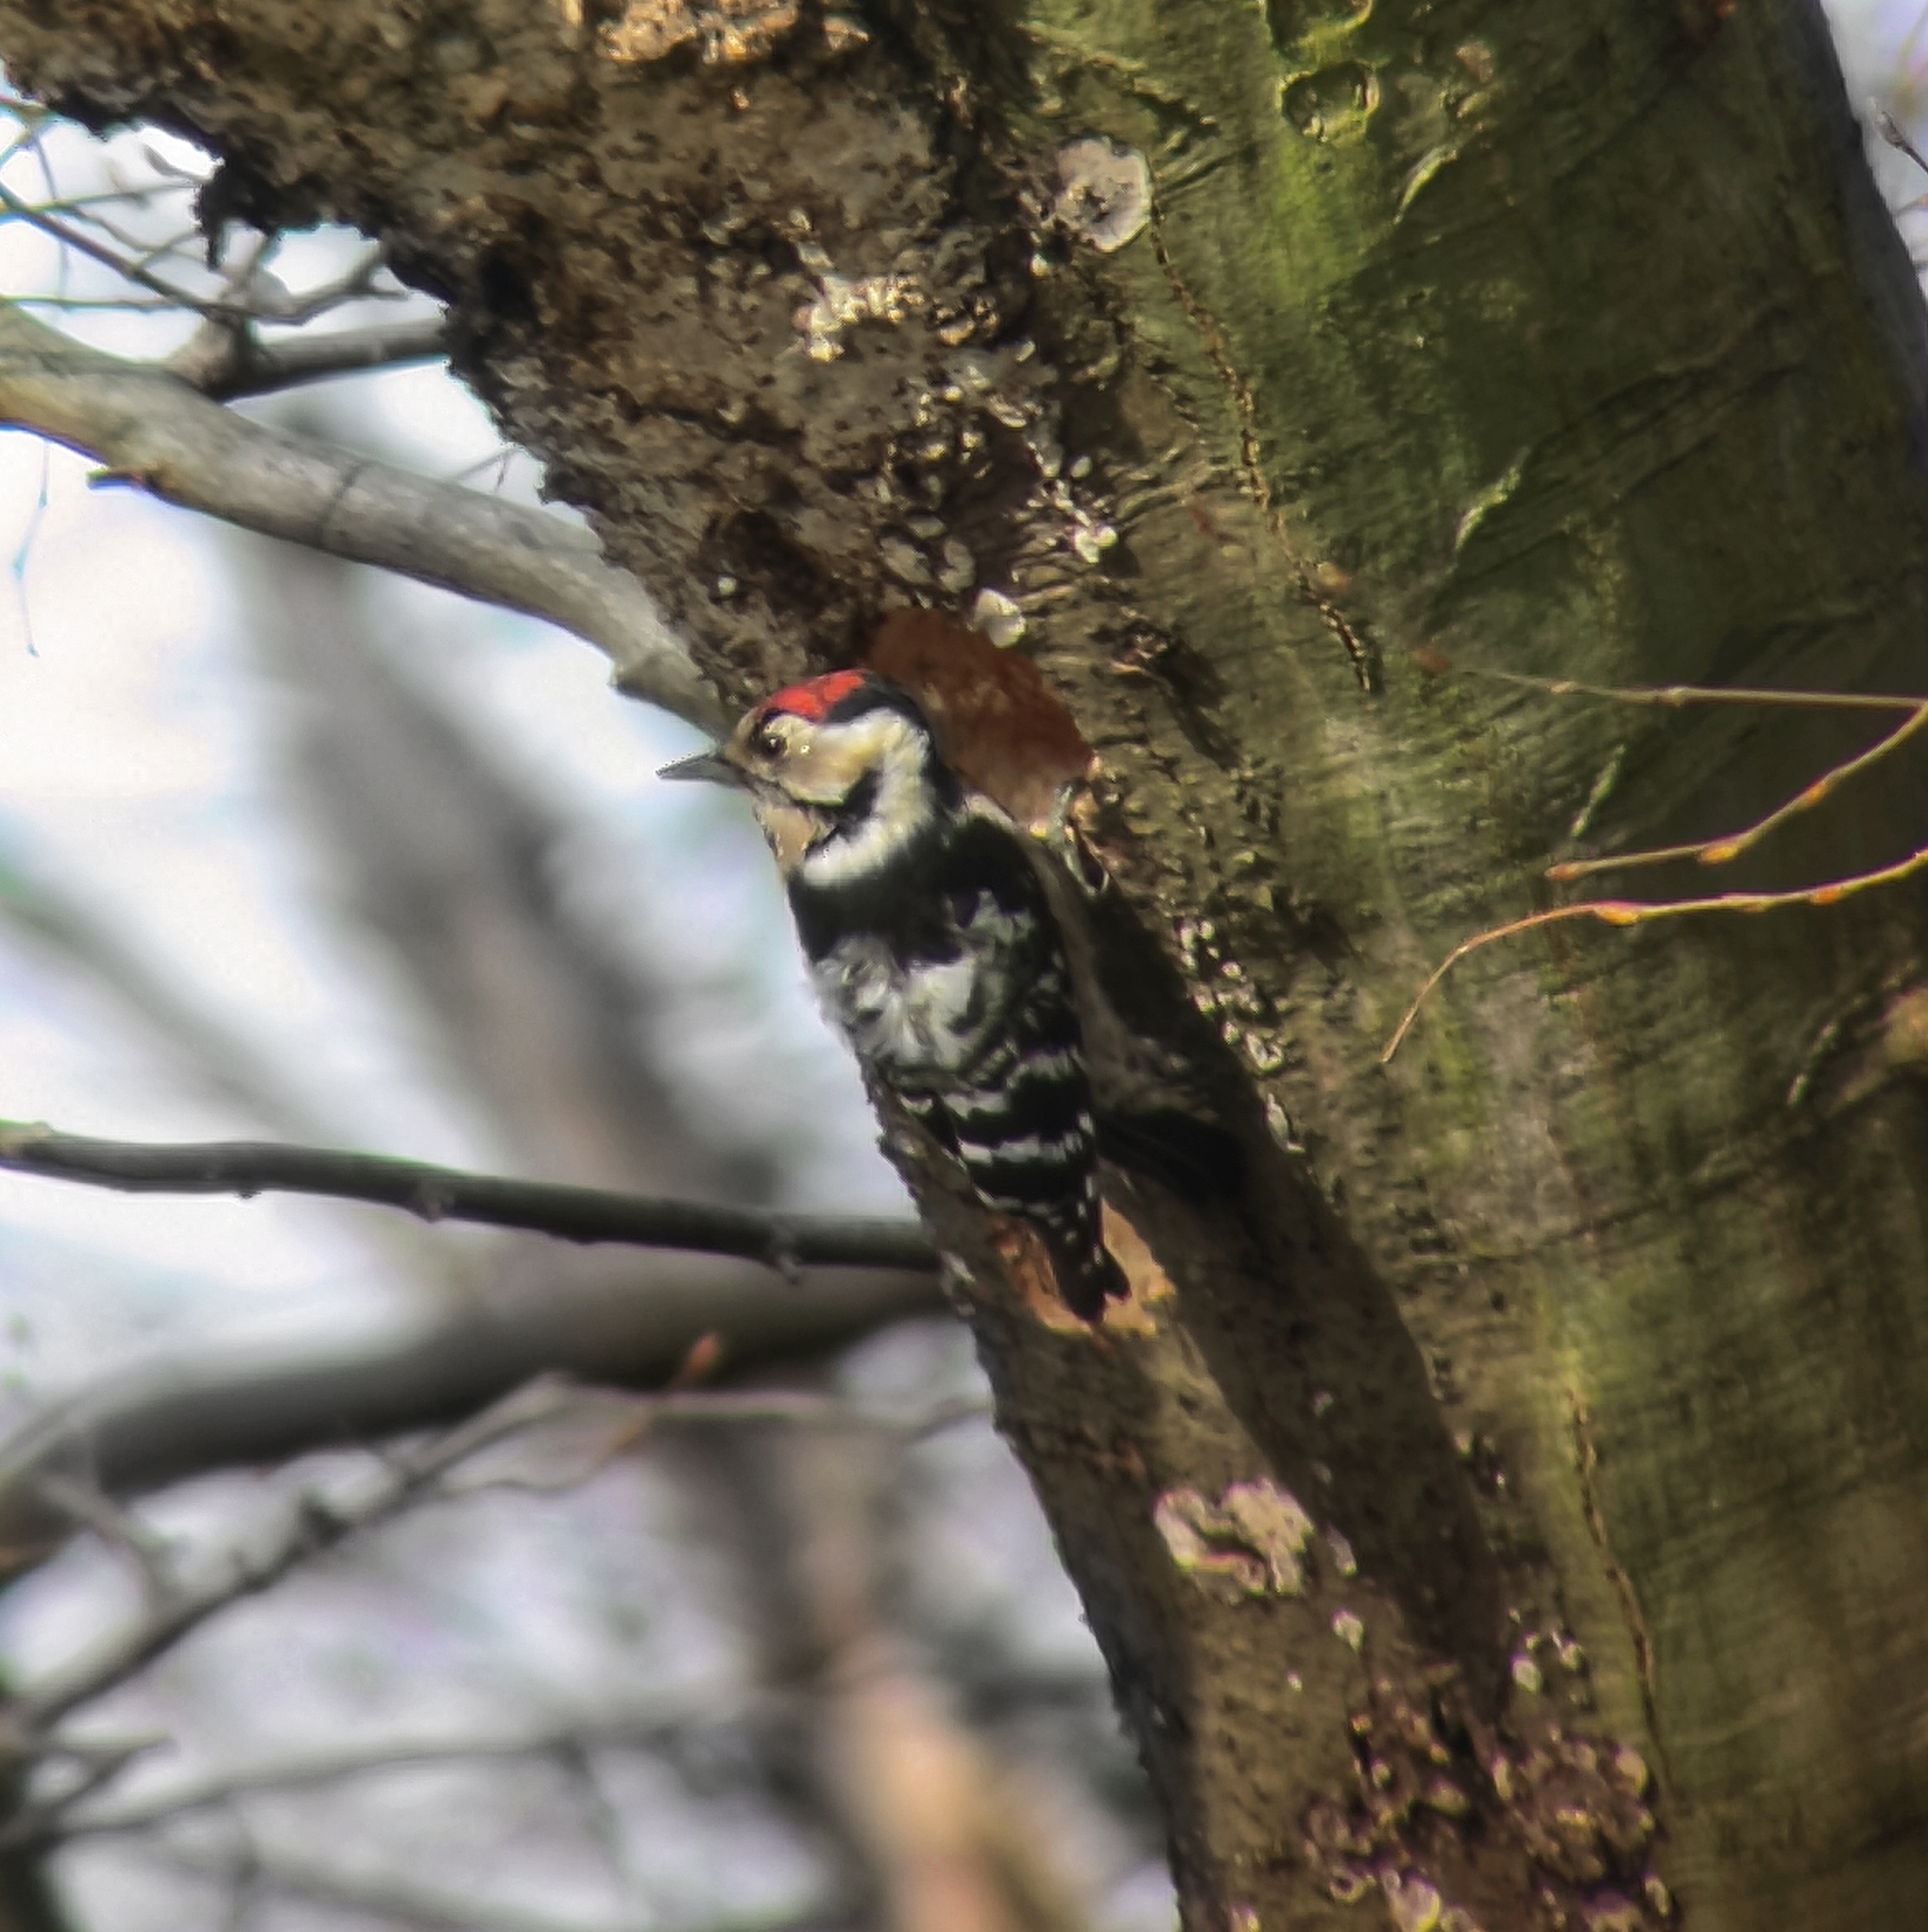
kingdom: Animalia
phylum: Chordata
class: Aves
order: Piciformes
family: Picidae
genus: Dryobates
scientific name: Dryobates minor
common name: Lesser spotted woodpecker
